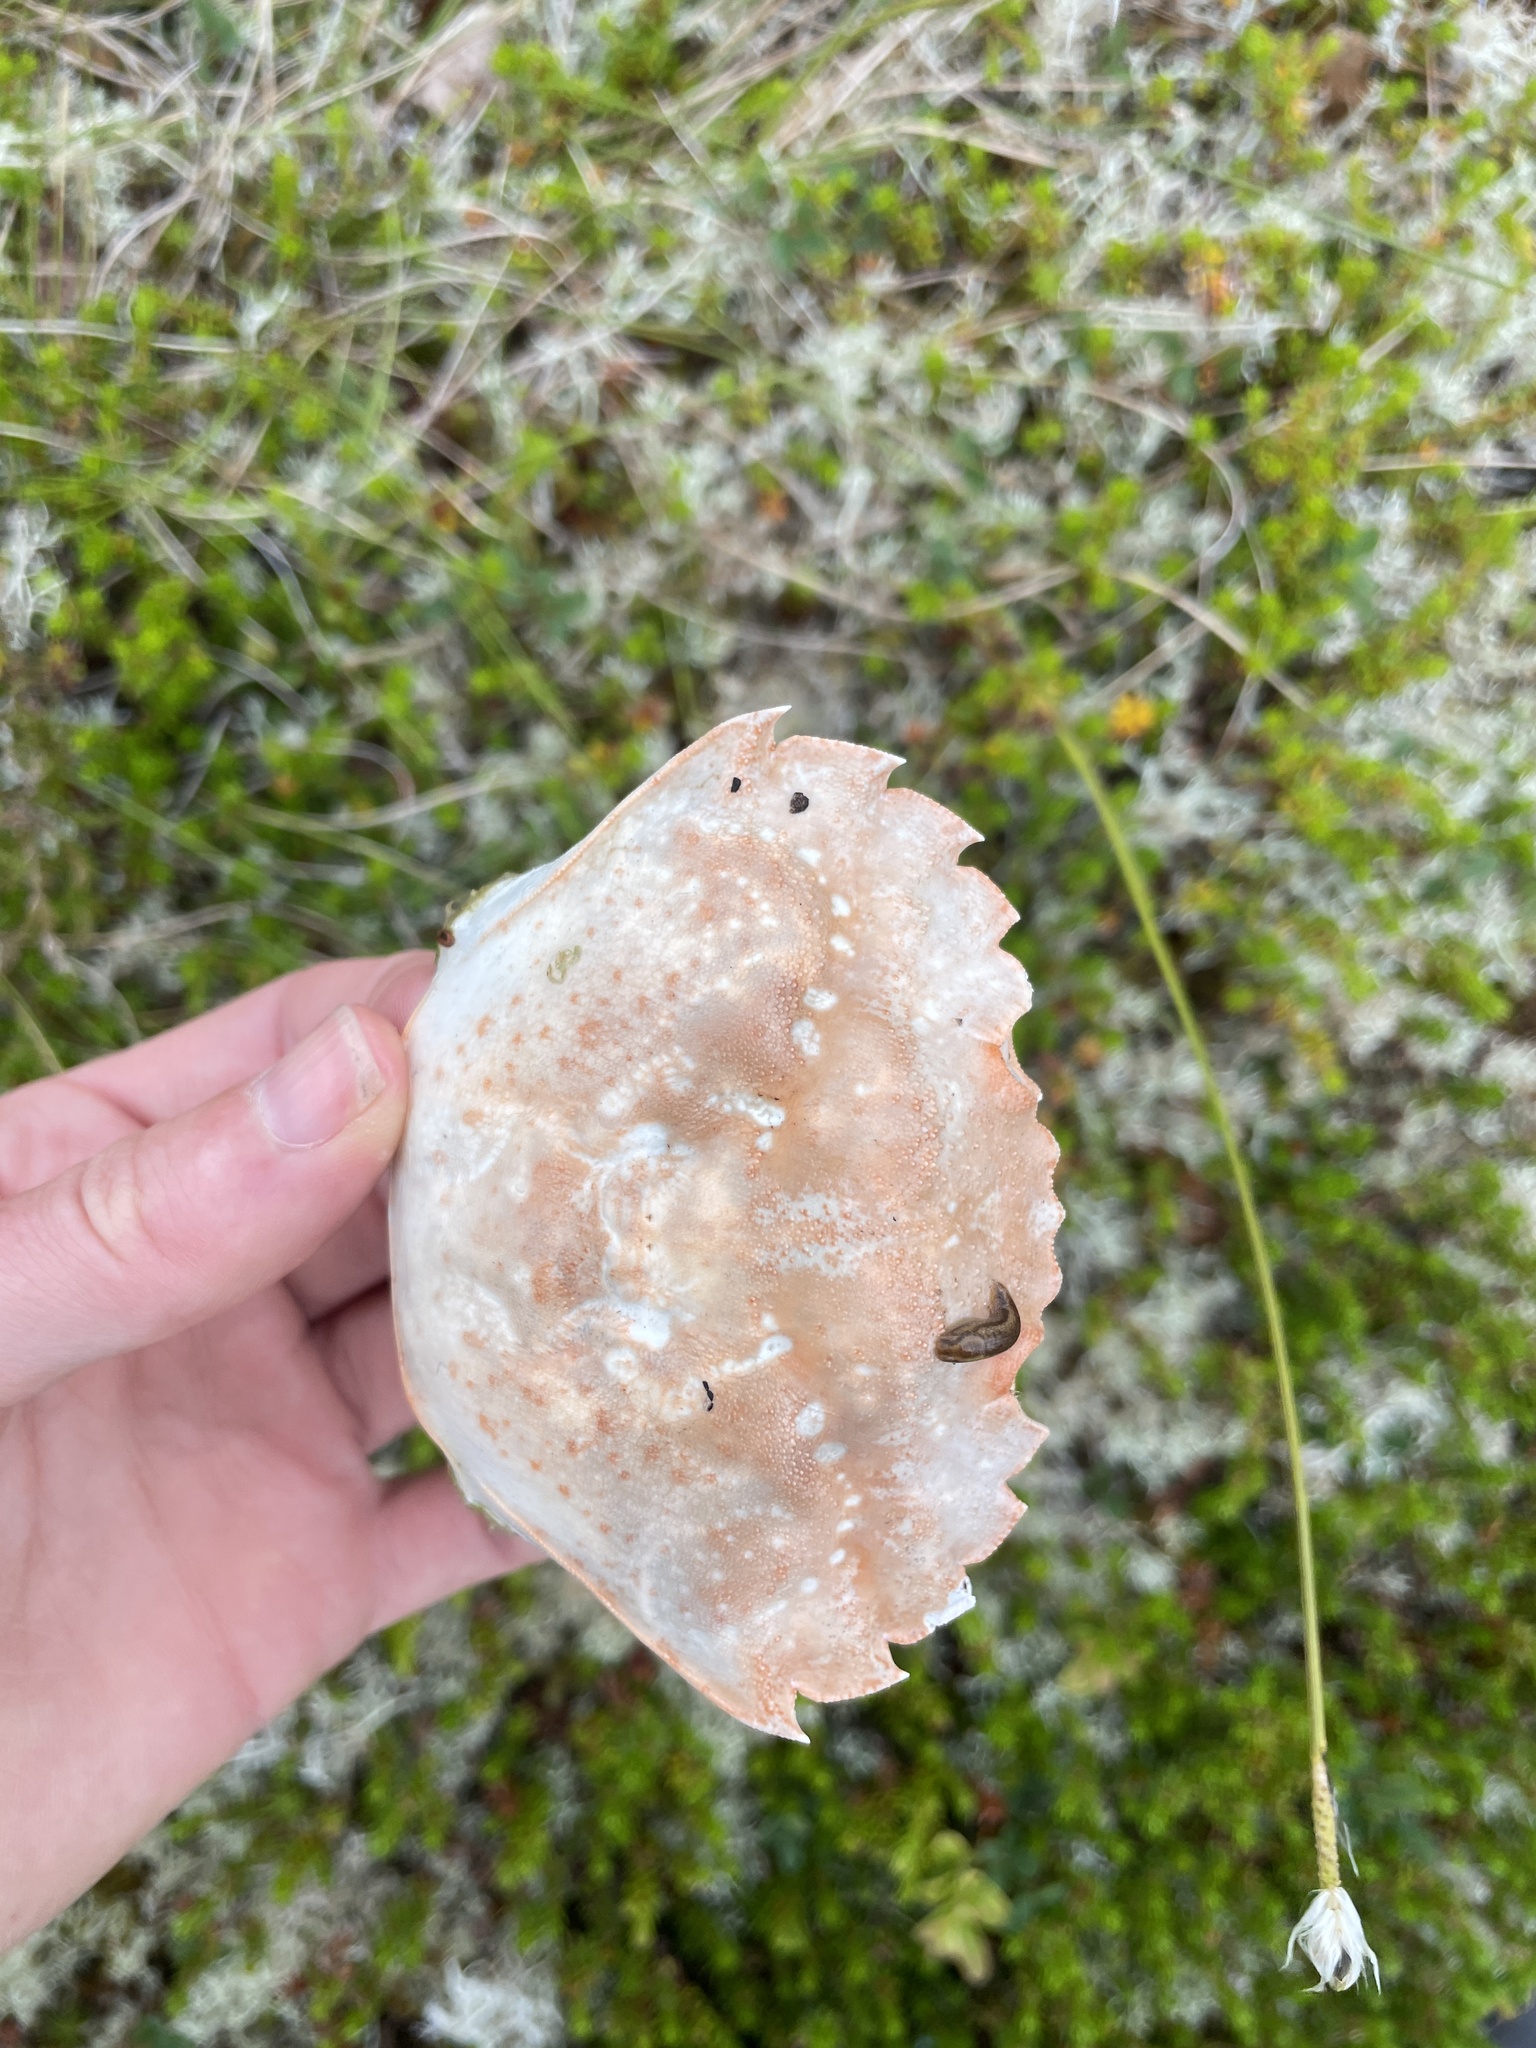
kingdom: Animalia
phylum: Arthropoda
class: Malacostraca
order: Decapoda
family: Carcinidae
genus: Carcinus
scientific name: Carcinus maenas
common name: European green crab
